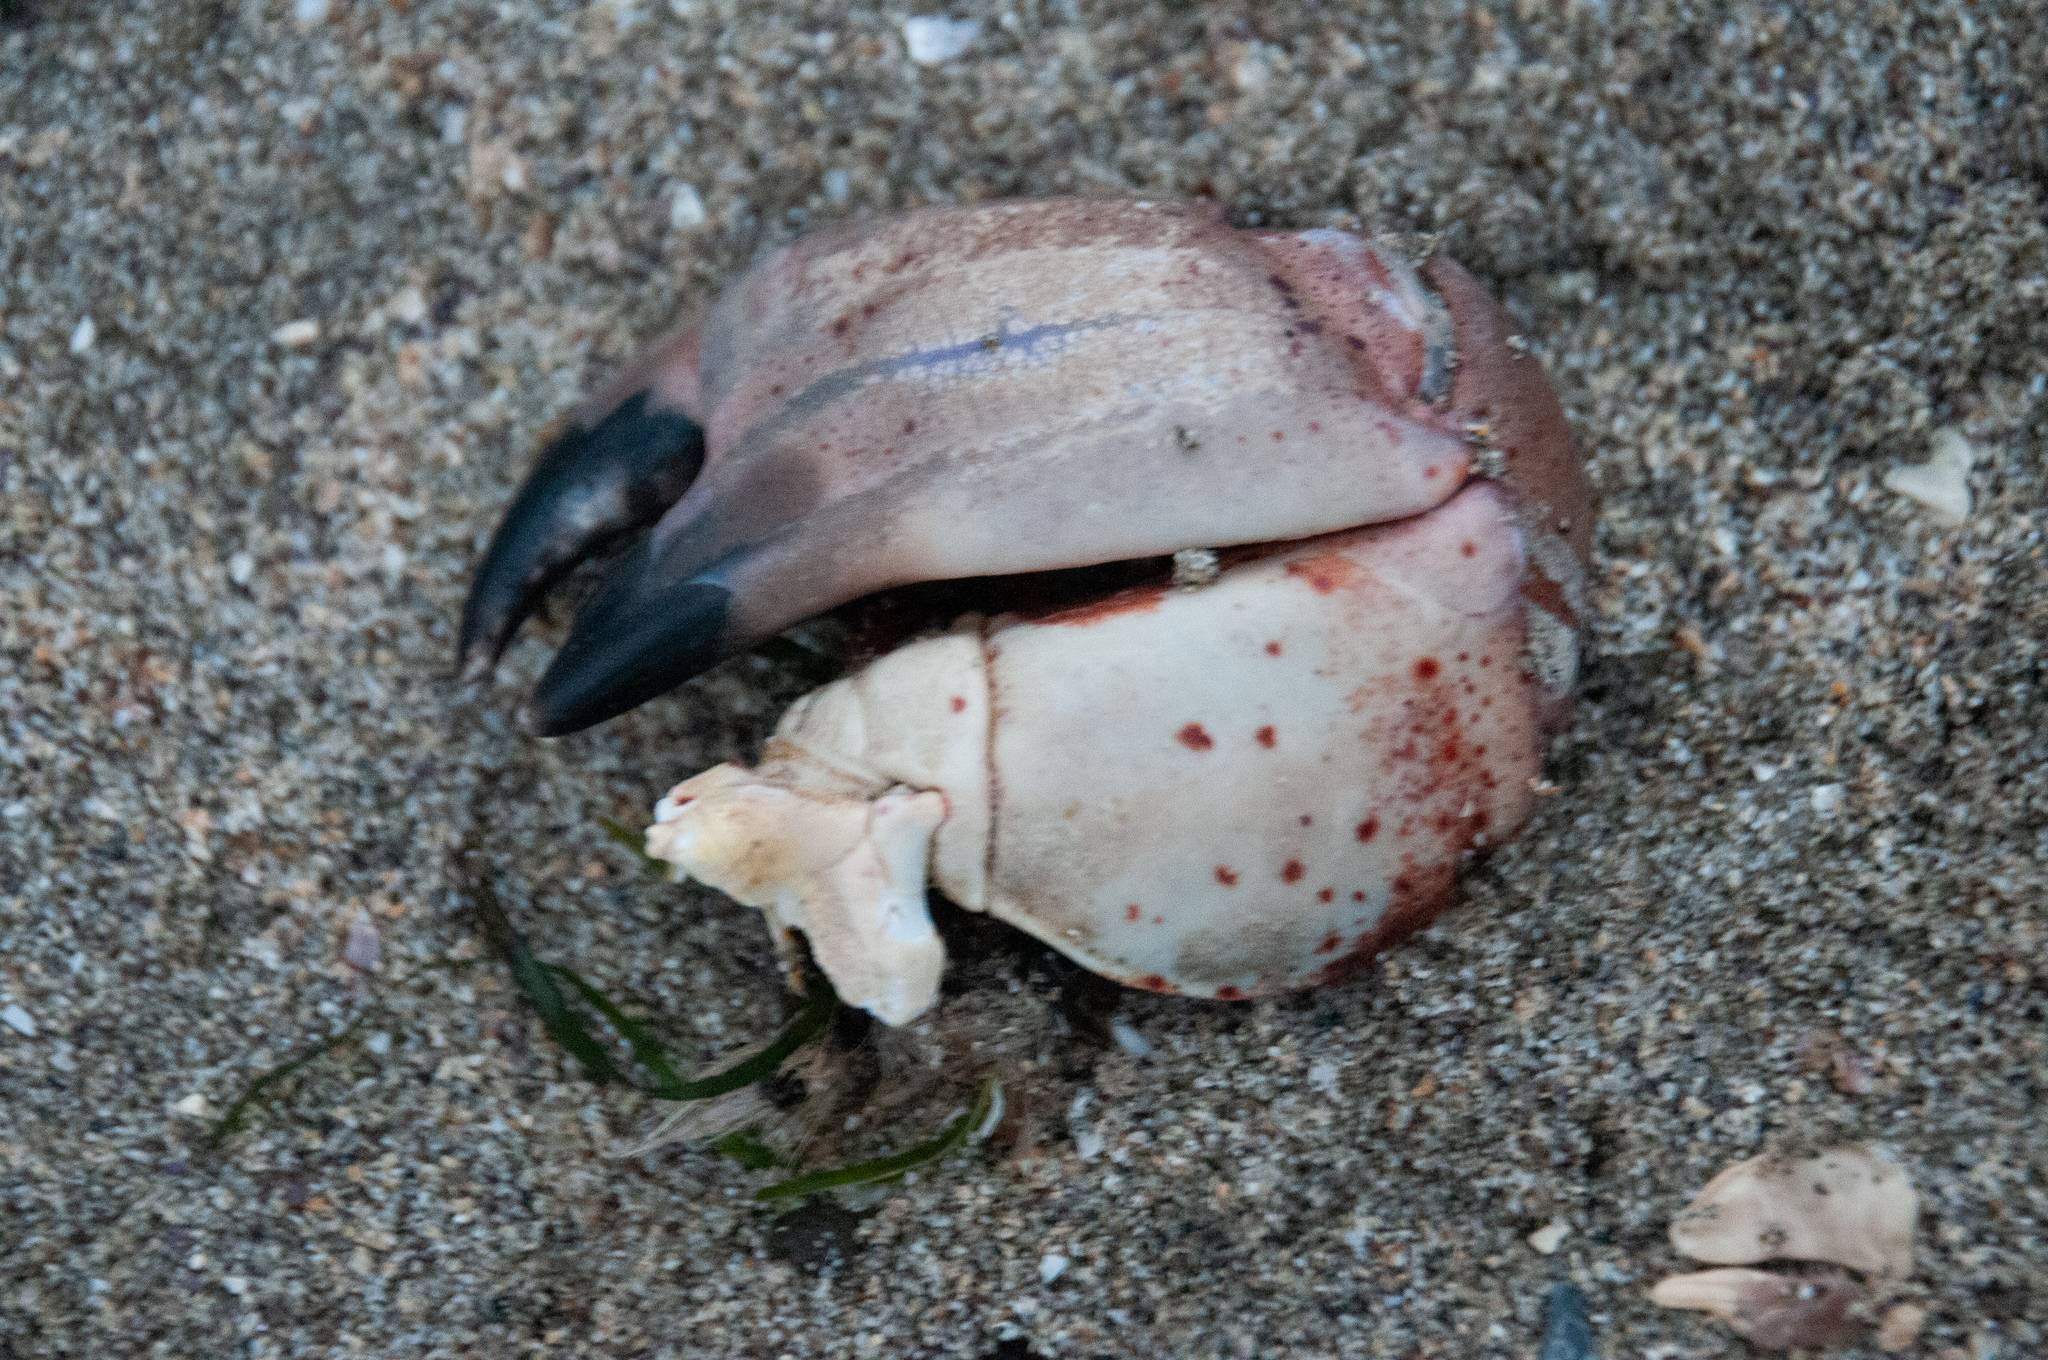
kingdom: Animalia
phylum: Arthropoda
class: Malacostraca
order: Decapoda
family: Cancridae
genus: Romaleon
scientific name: Romaleon antennarium
